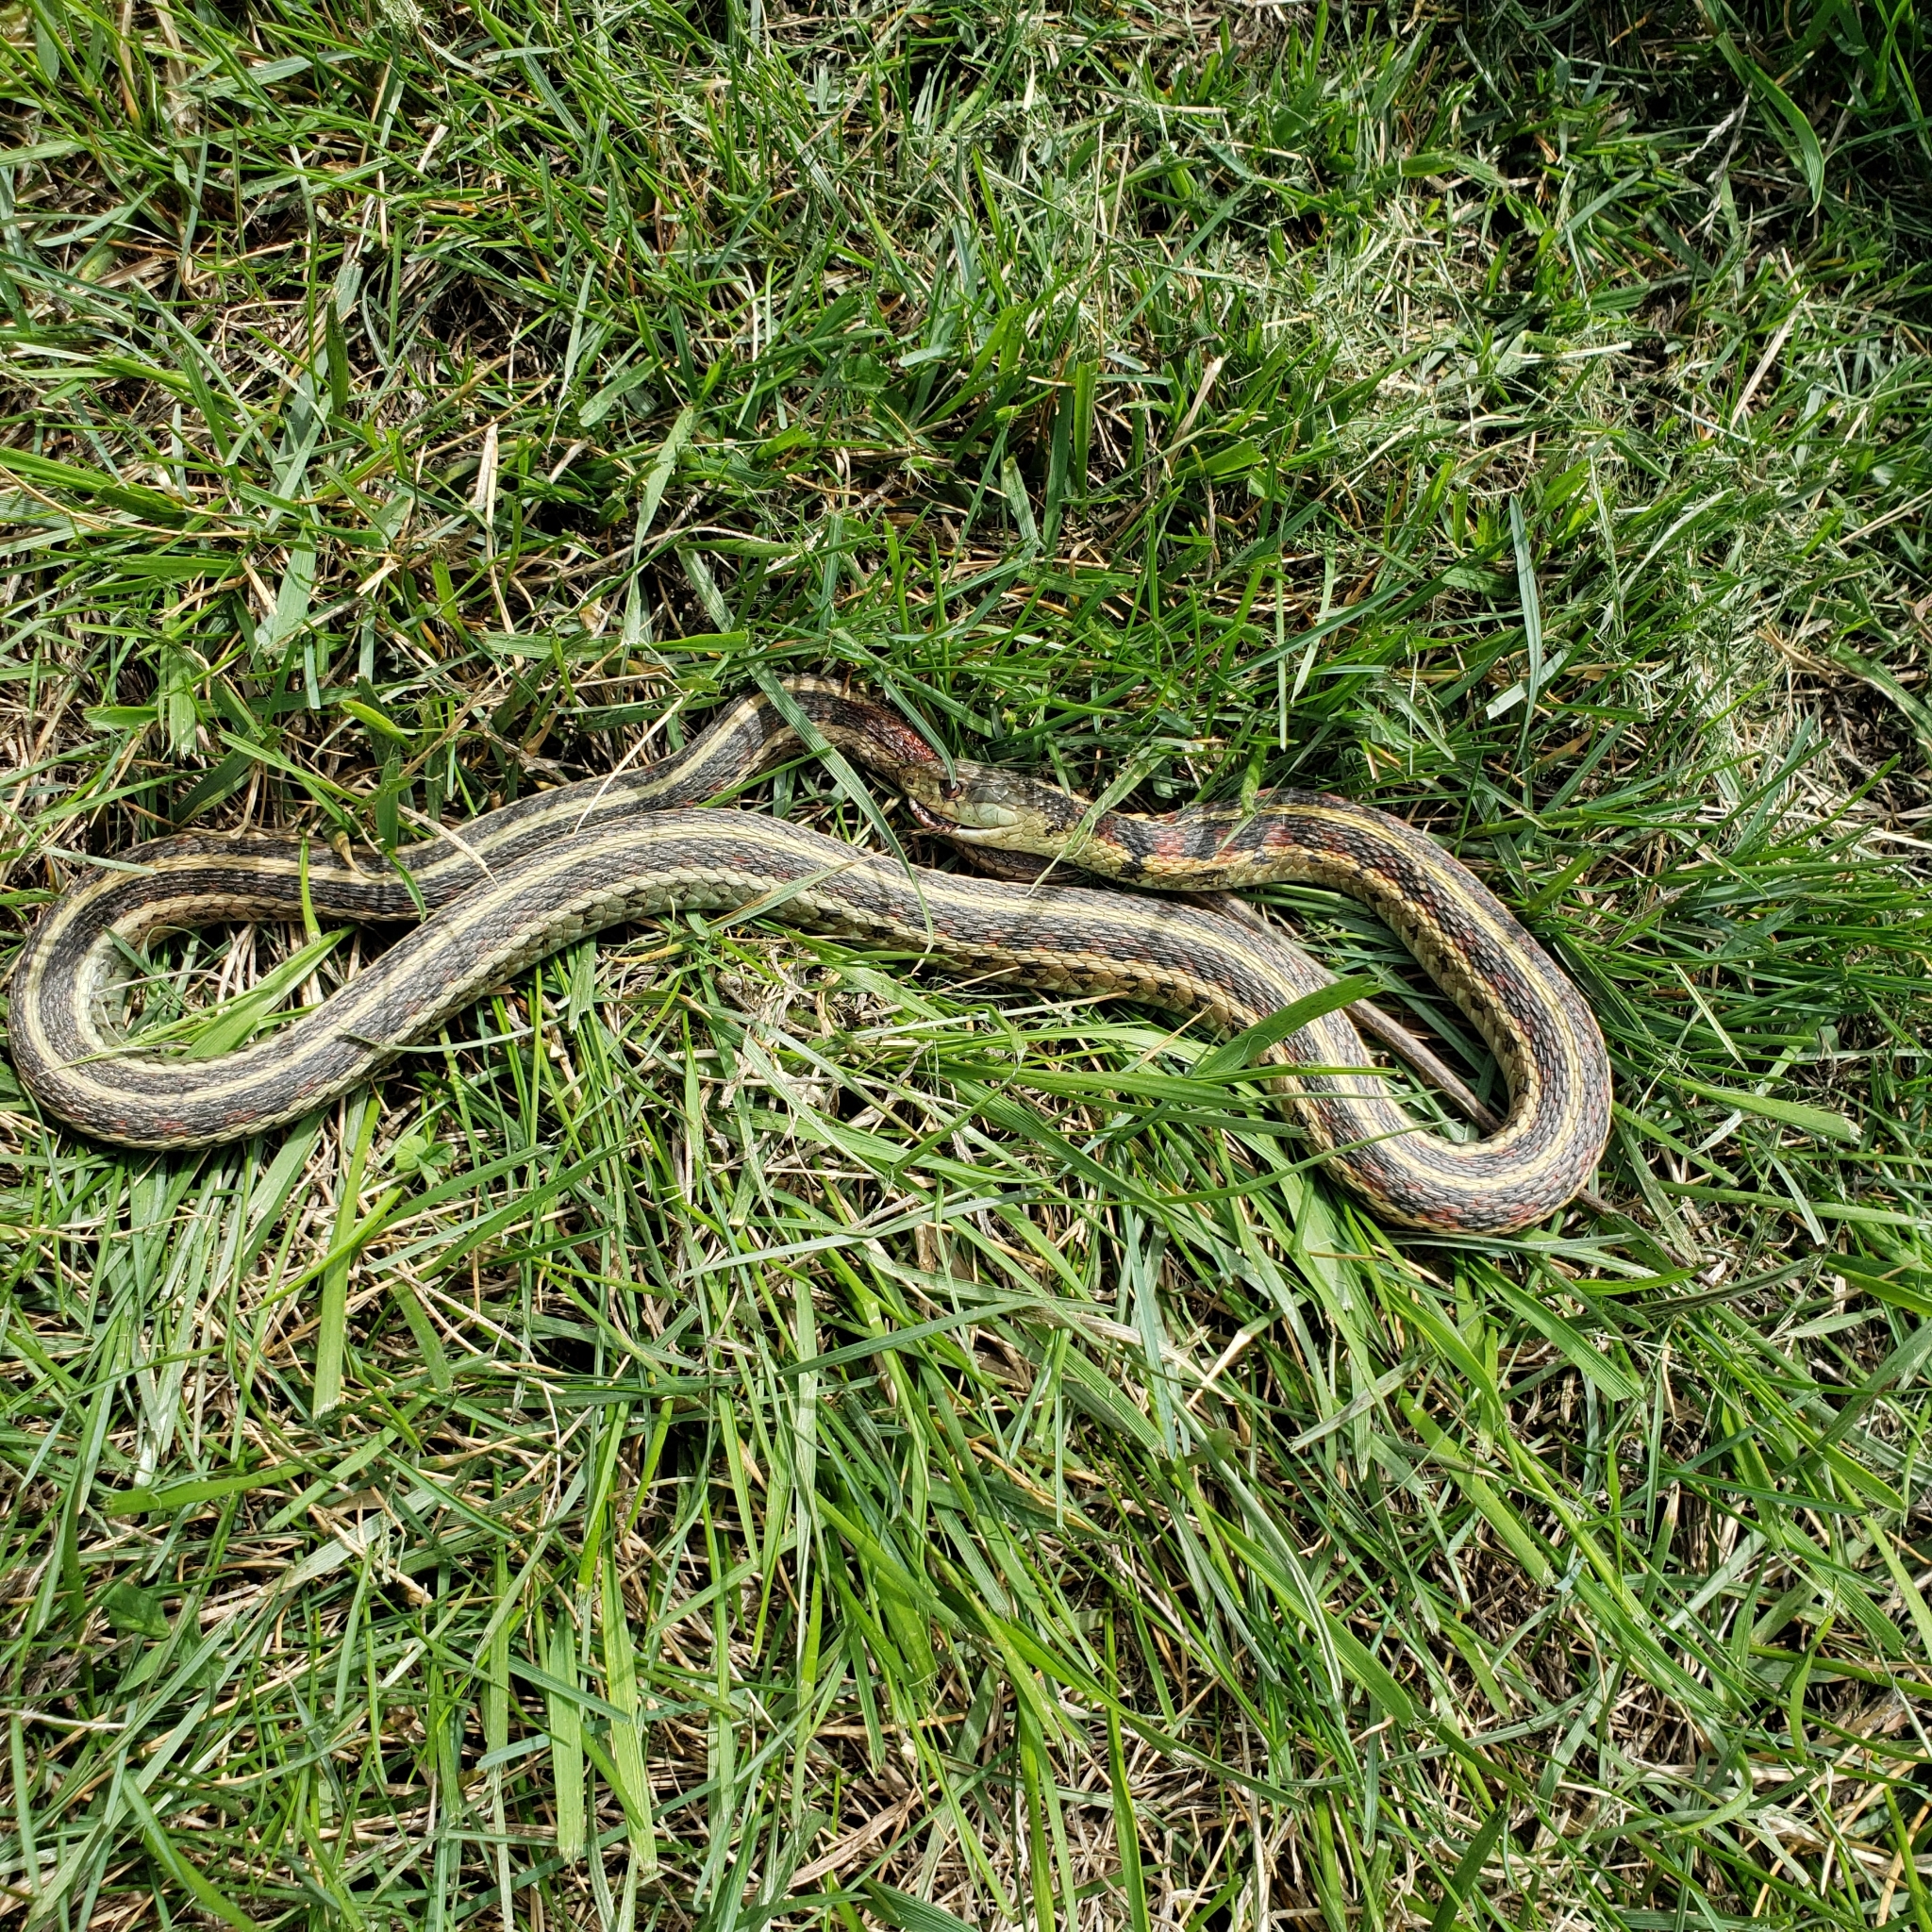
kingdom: Animalia
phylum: Chordata
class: Squamata
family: Colubridae
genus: Thamnophis
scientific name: Thamnophis sirtalis
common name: Common garter snake
